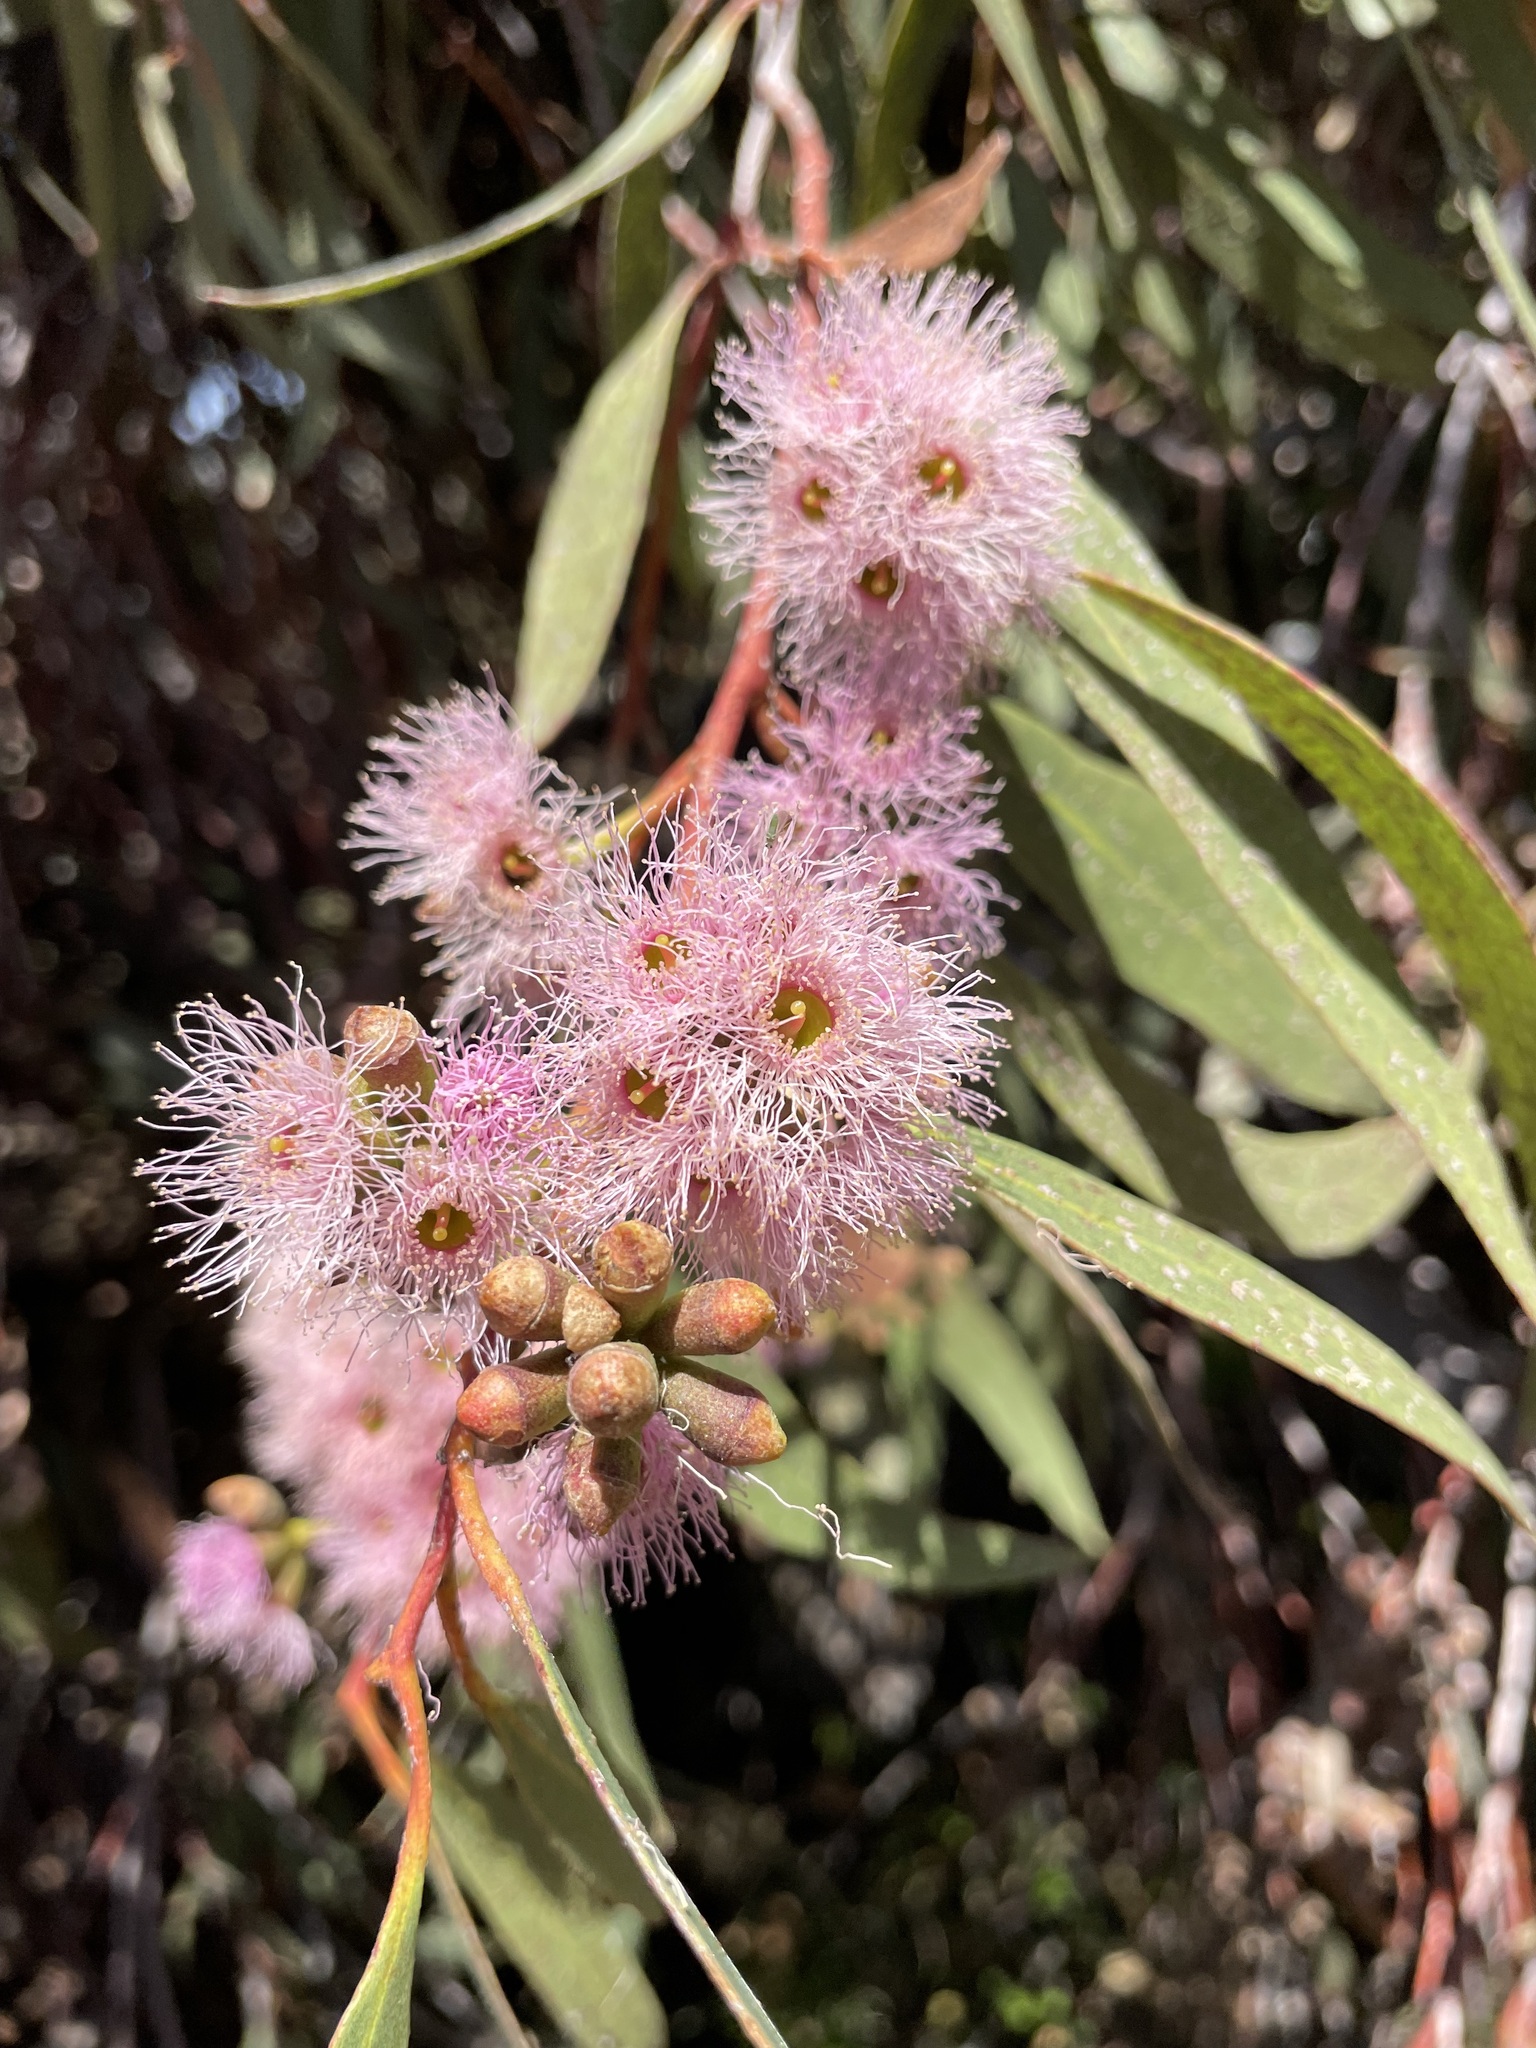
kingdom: Plantae
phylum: Tracheophyta
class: Magnoliopsida
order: Myrtales
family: Myrtaceae
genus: Eucalyptus
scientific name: Eucalyptus albopurpurea
